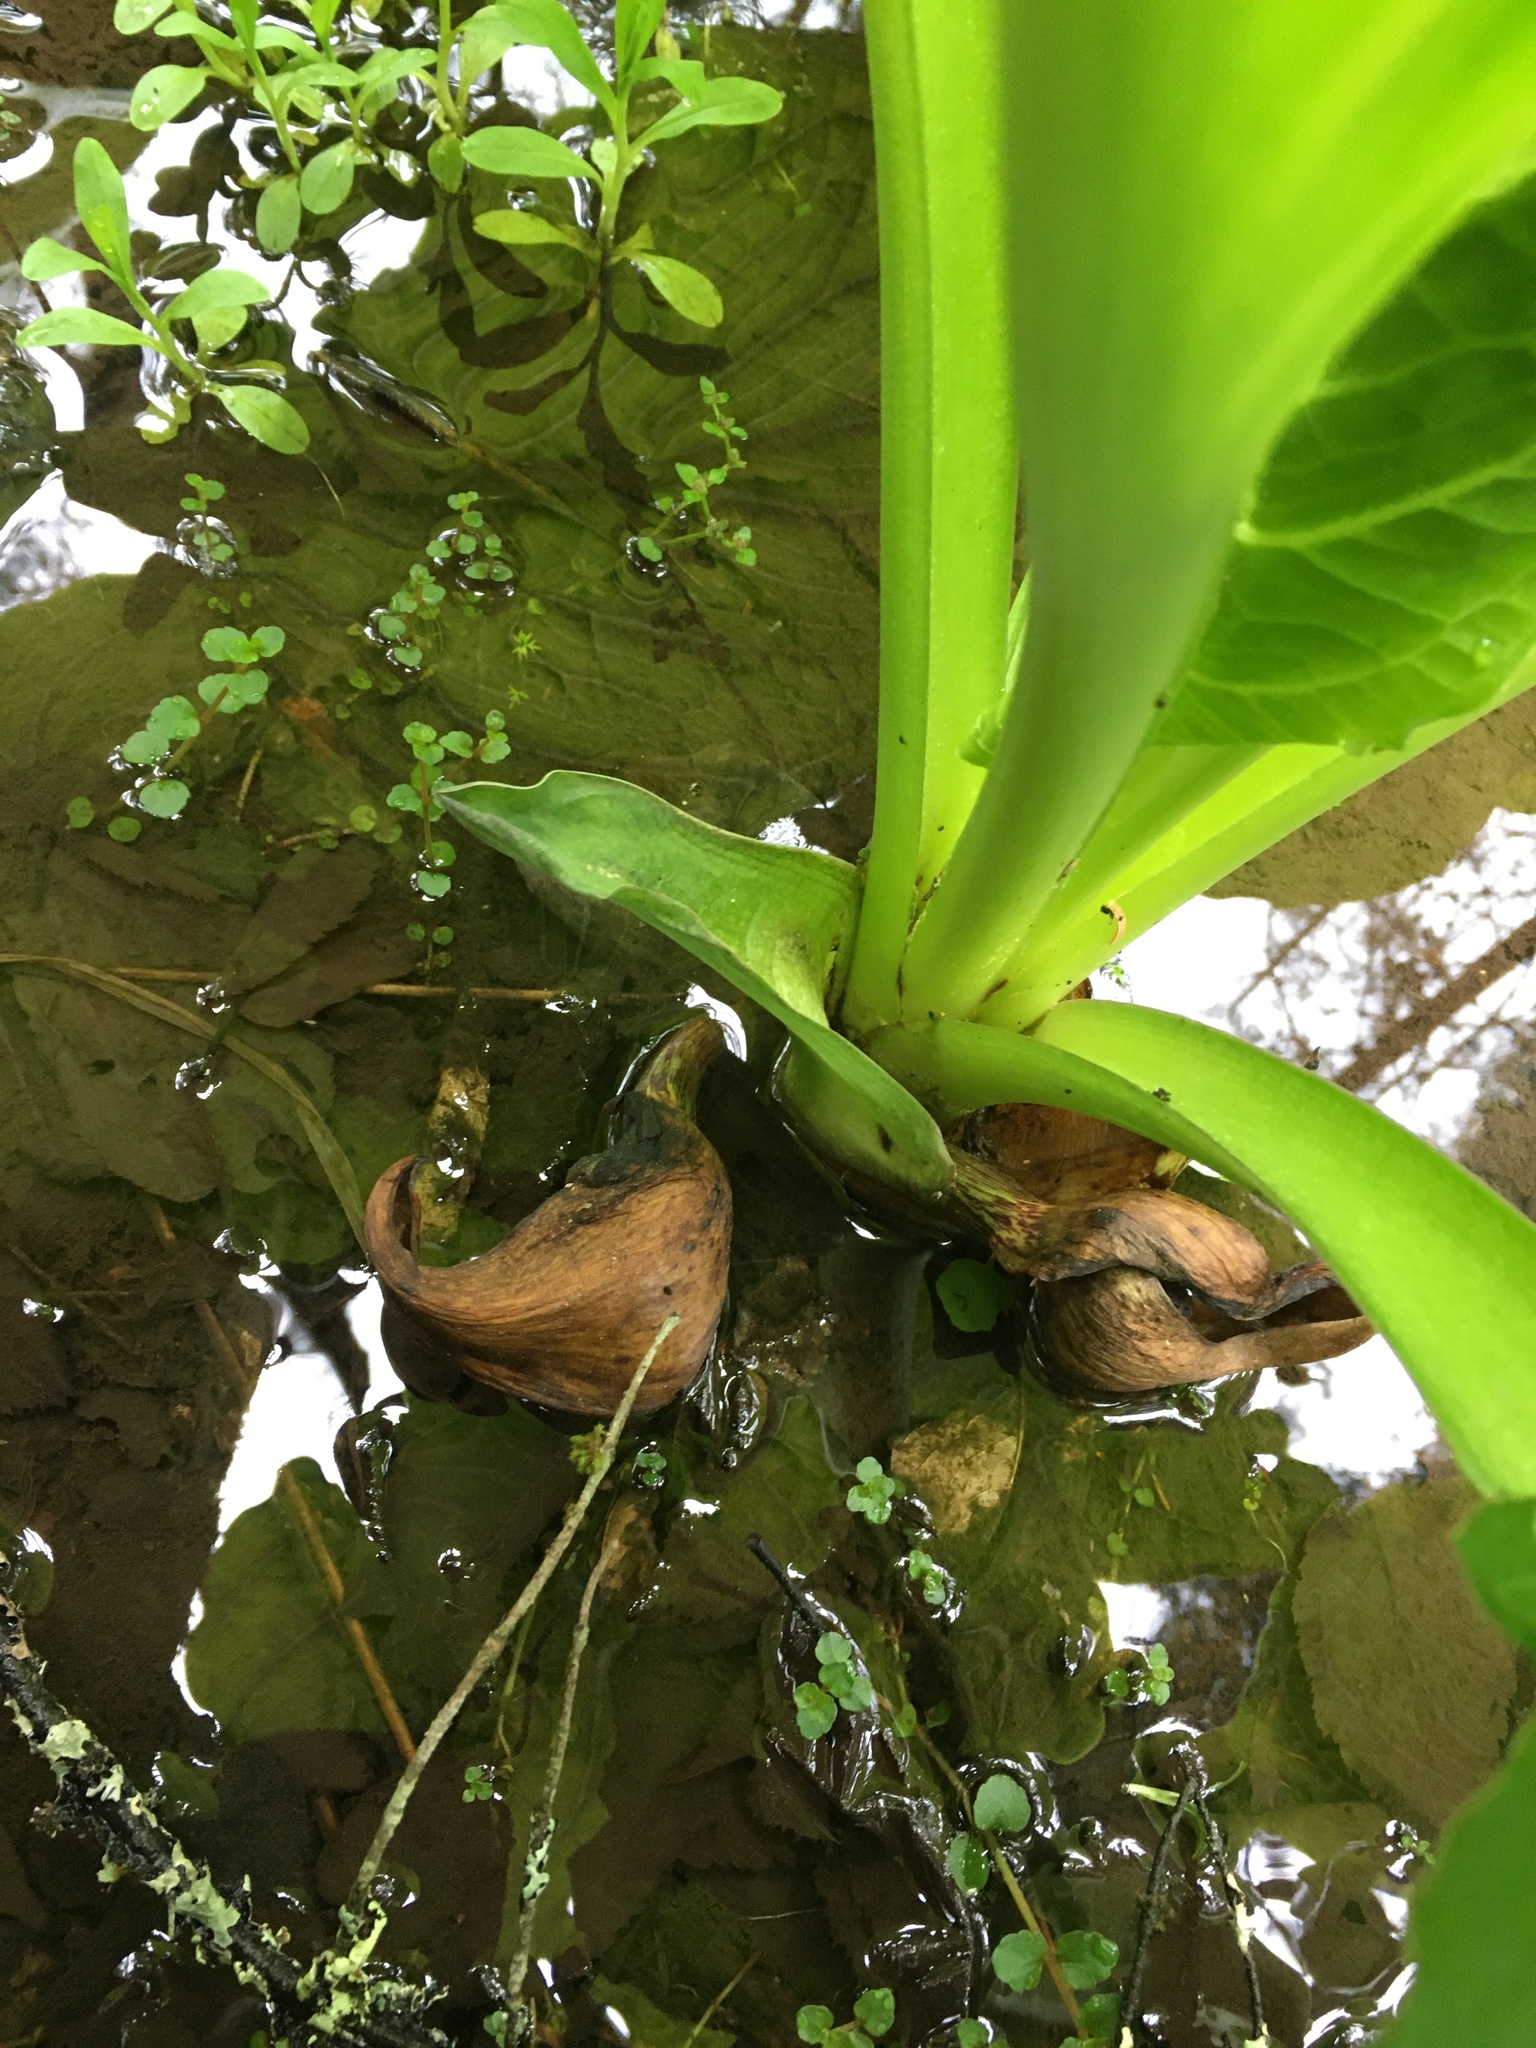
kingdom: Plantae
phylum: Tracheophyta
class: Liliopsida
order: Alismatales
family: Araceae
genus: Symplocarpus
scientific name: Symplocarpus foetidus
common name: Eastern skunk cabbage
